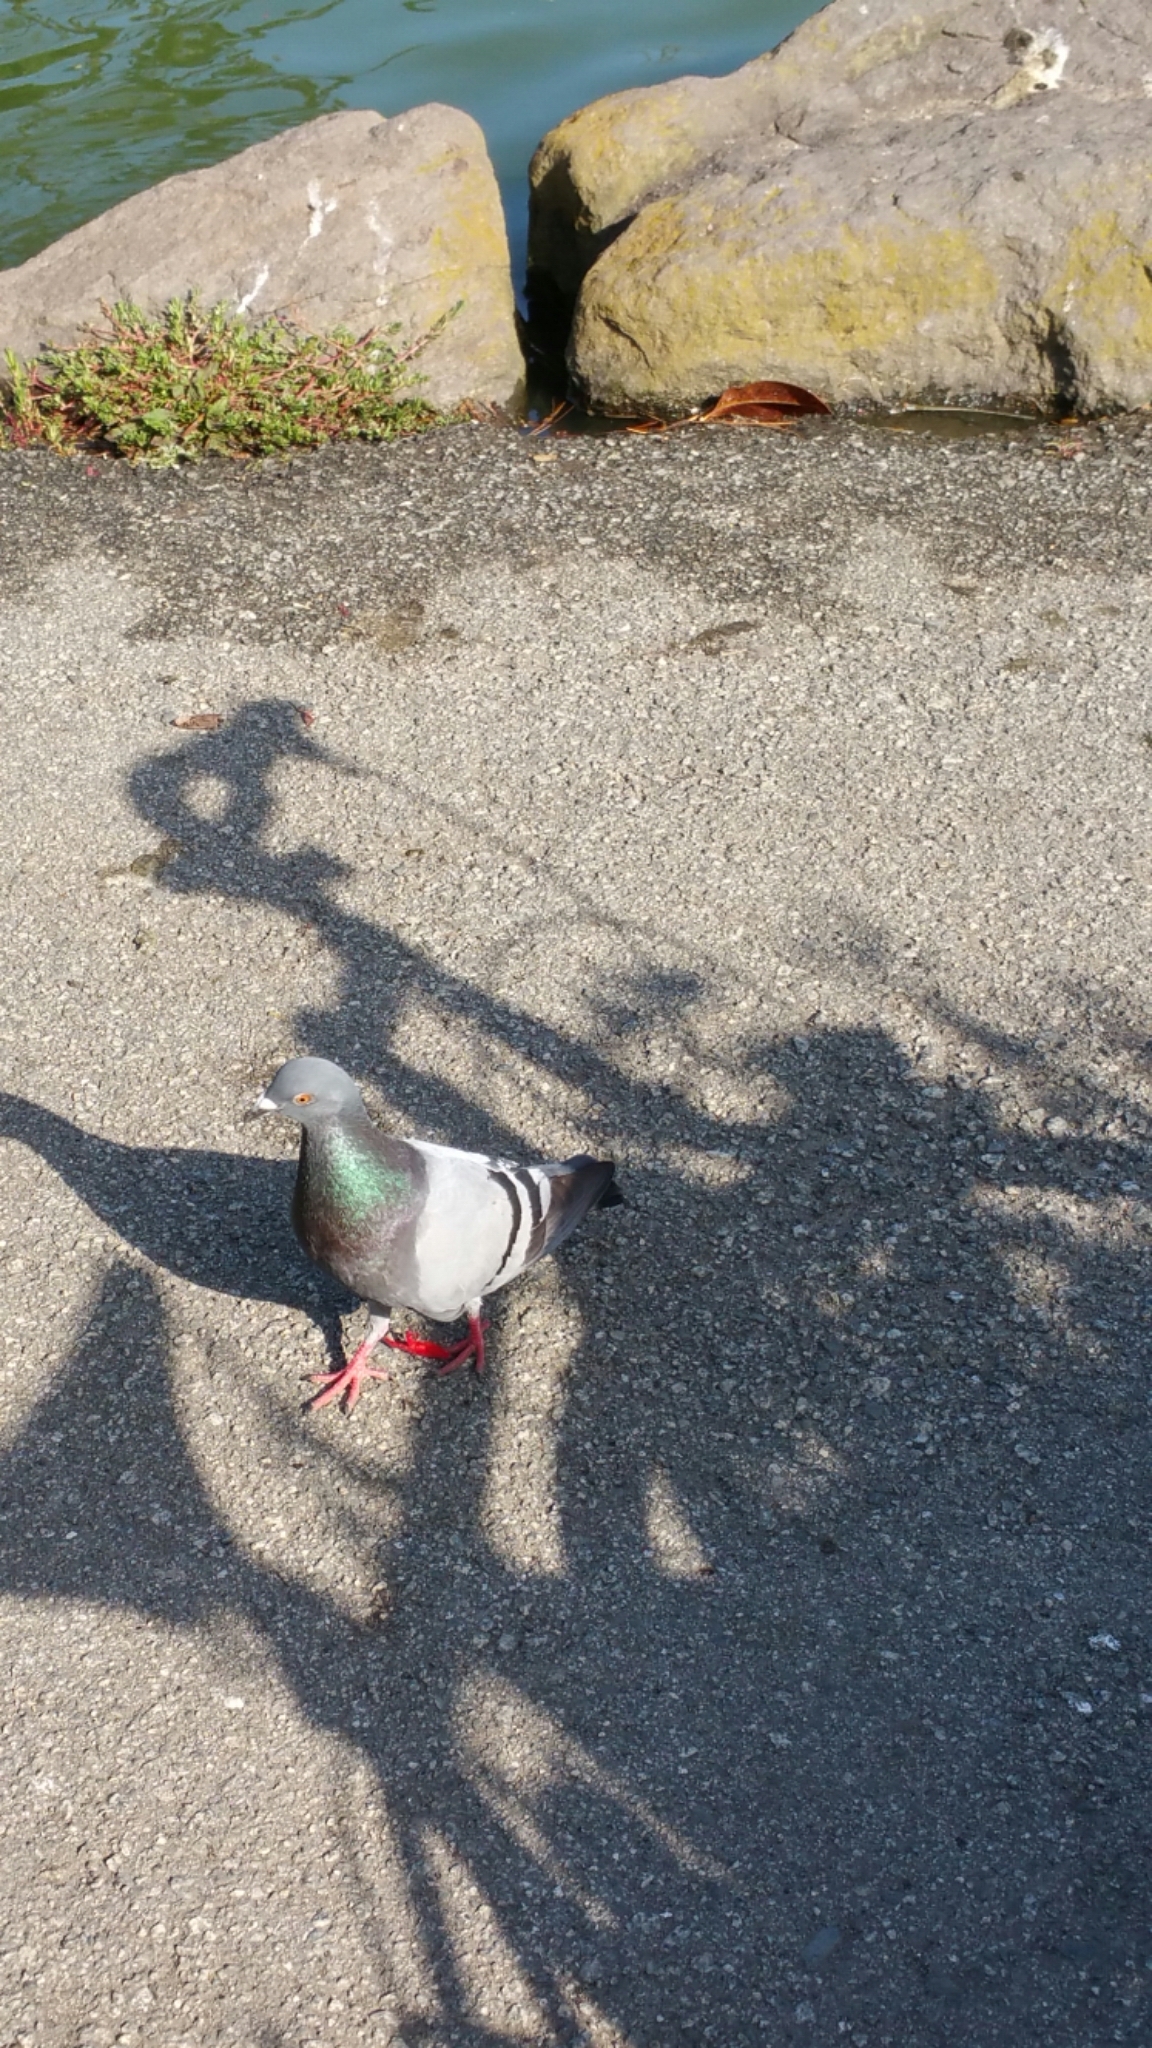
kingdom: Animalia
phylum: Chordata
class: Aves
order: Columbiformes
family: Columbidae
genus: Columba
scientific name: Columba livia
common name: Rock pigeon
